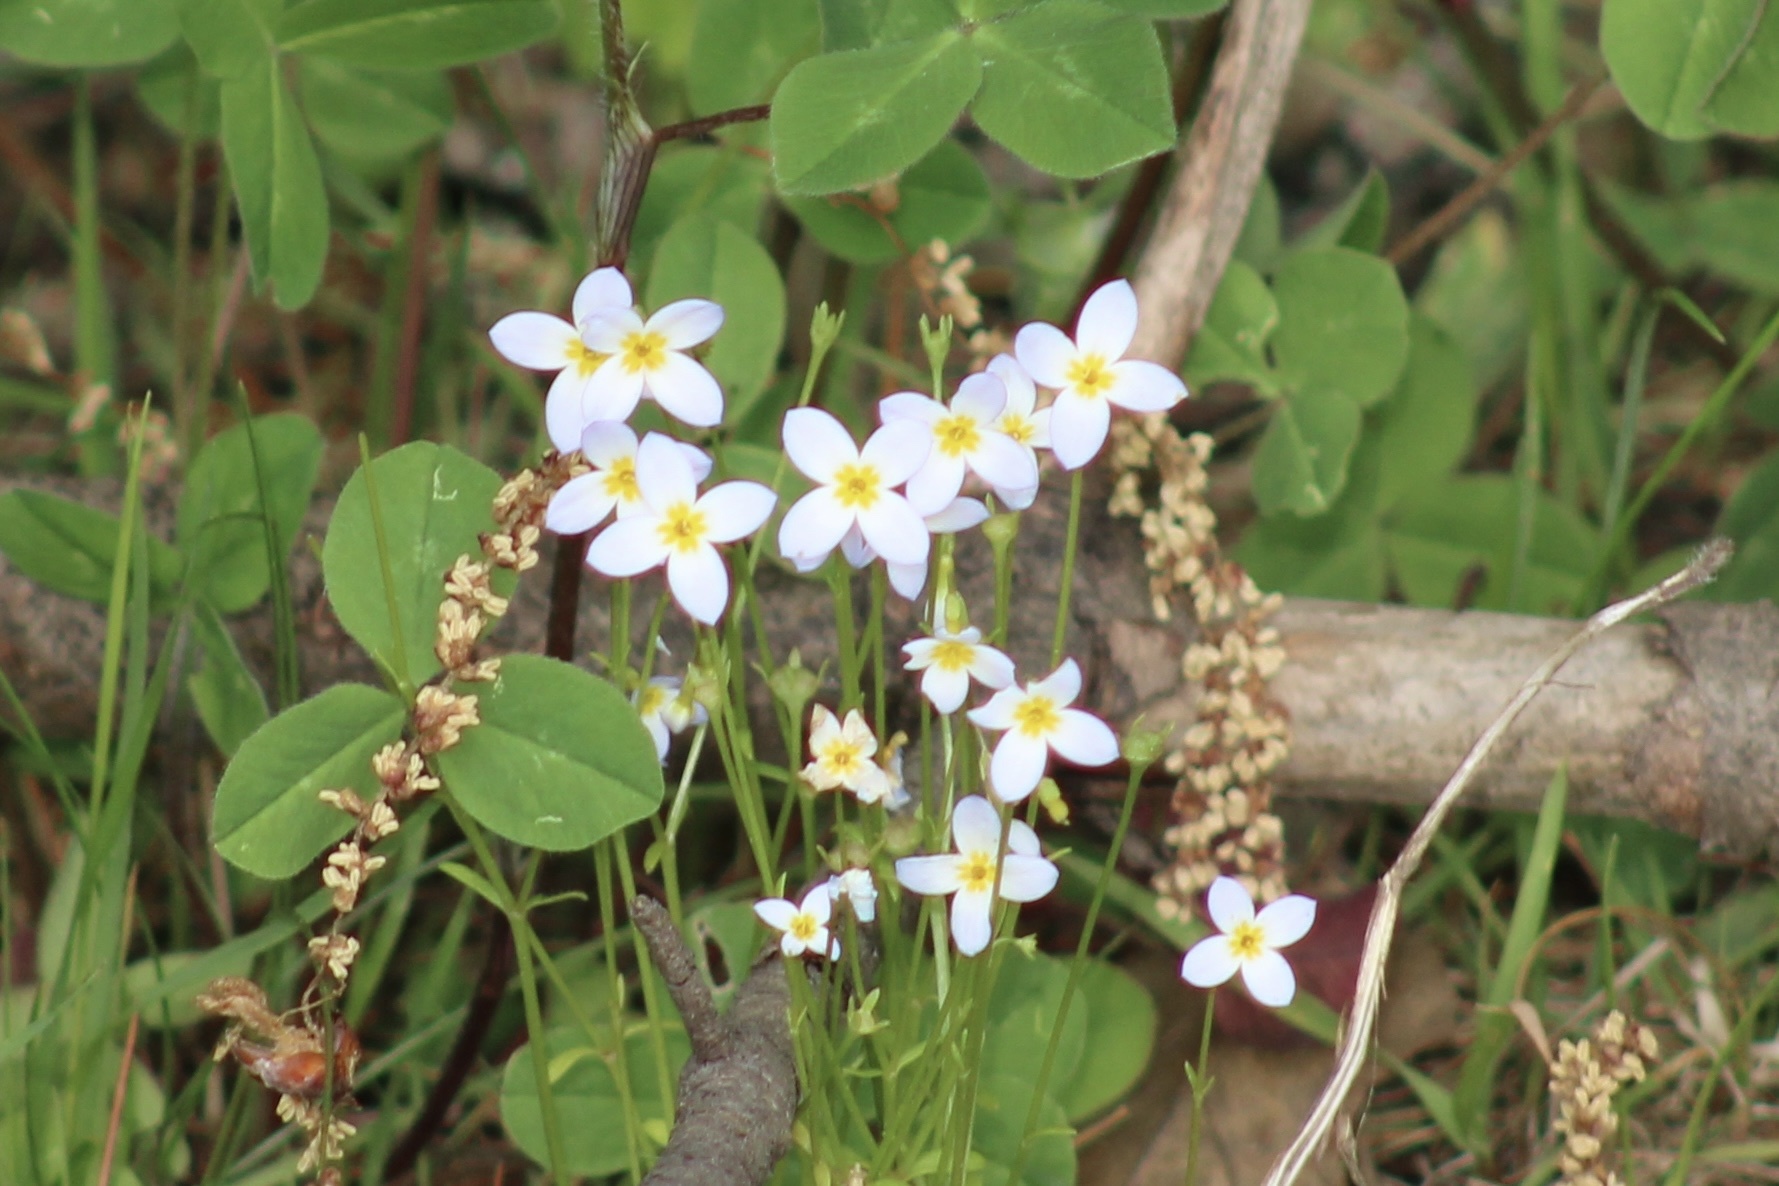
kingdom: Plantae
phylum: Tracheophyta
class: Magnoliopsida
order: Gentianales
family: Rubiaceae
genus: Houstonia
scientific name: Houstonia caerulea
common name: Bluets
